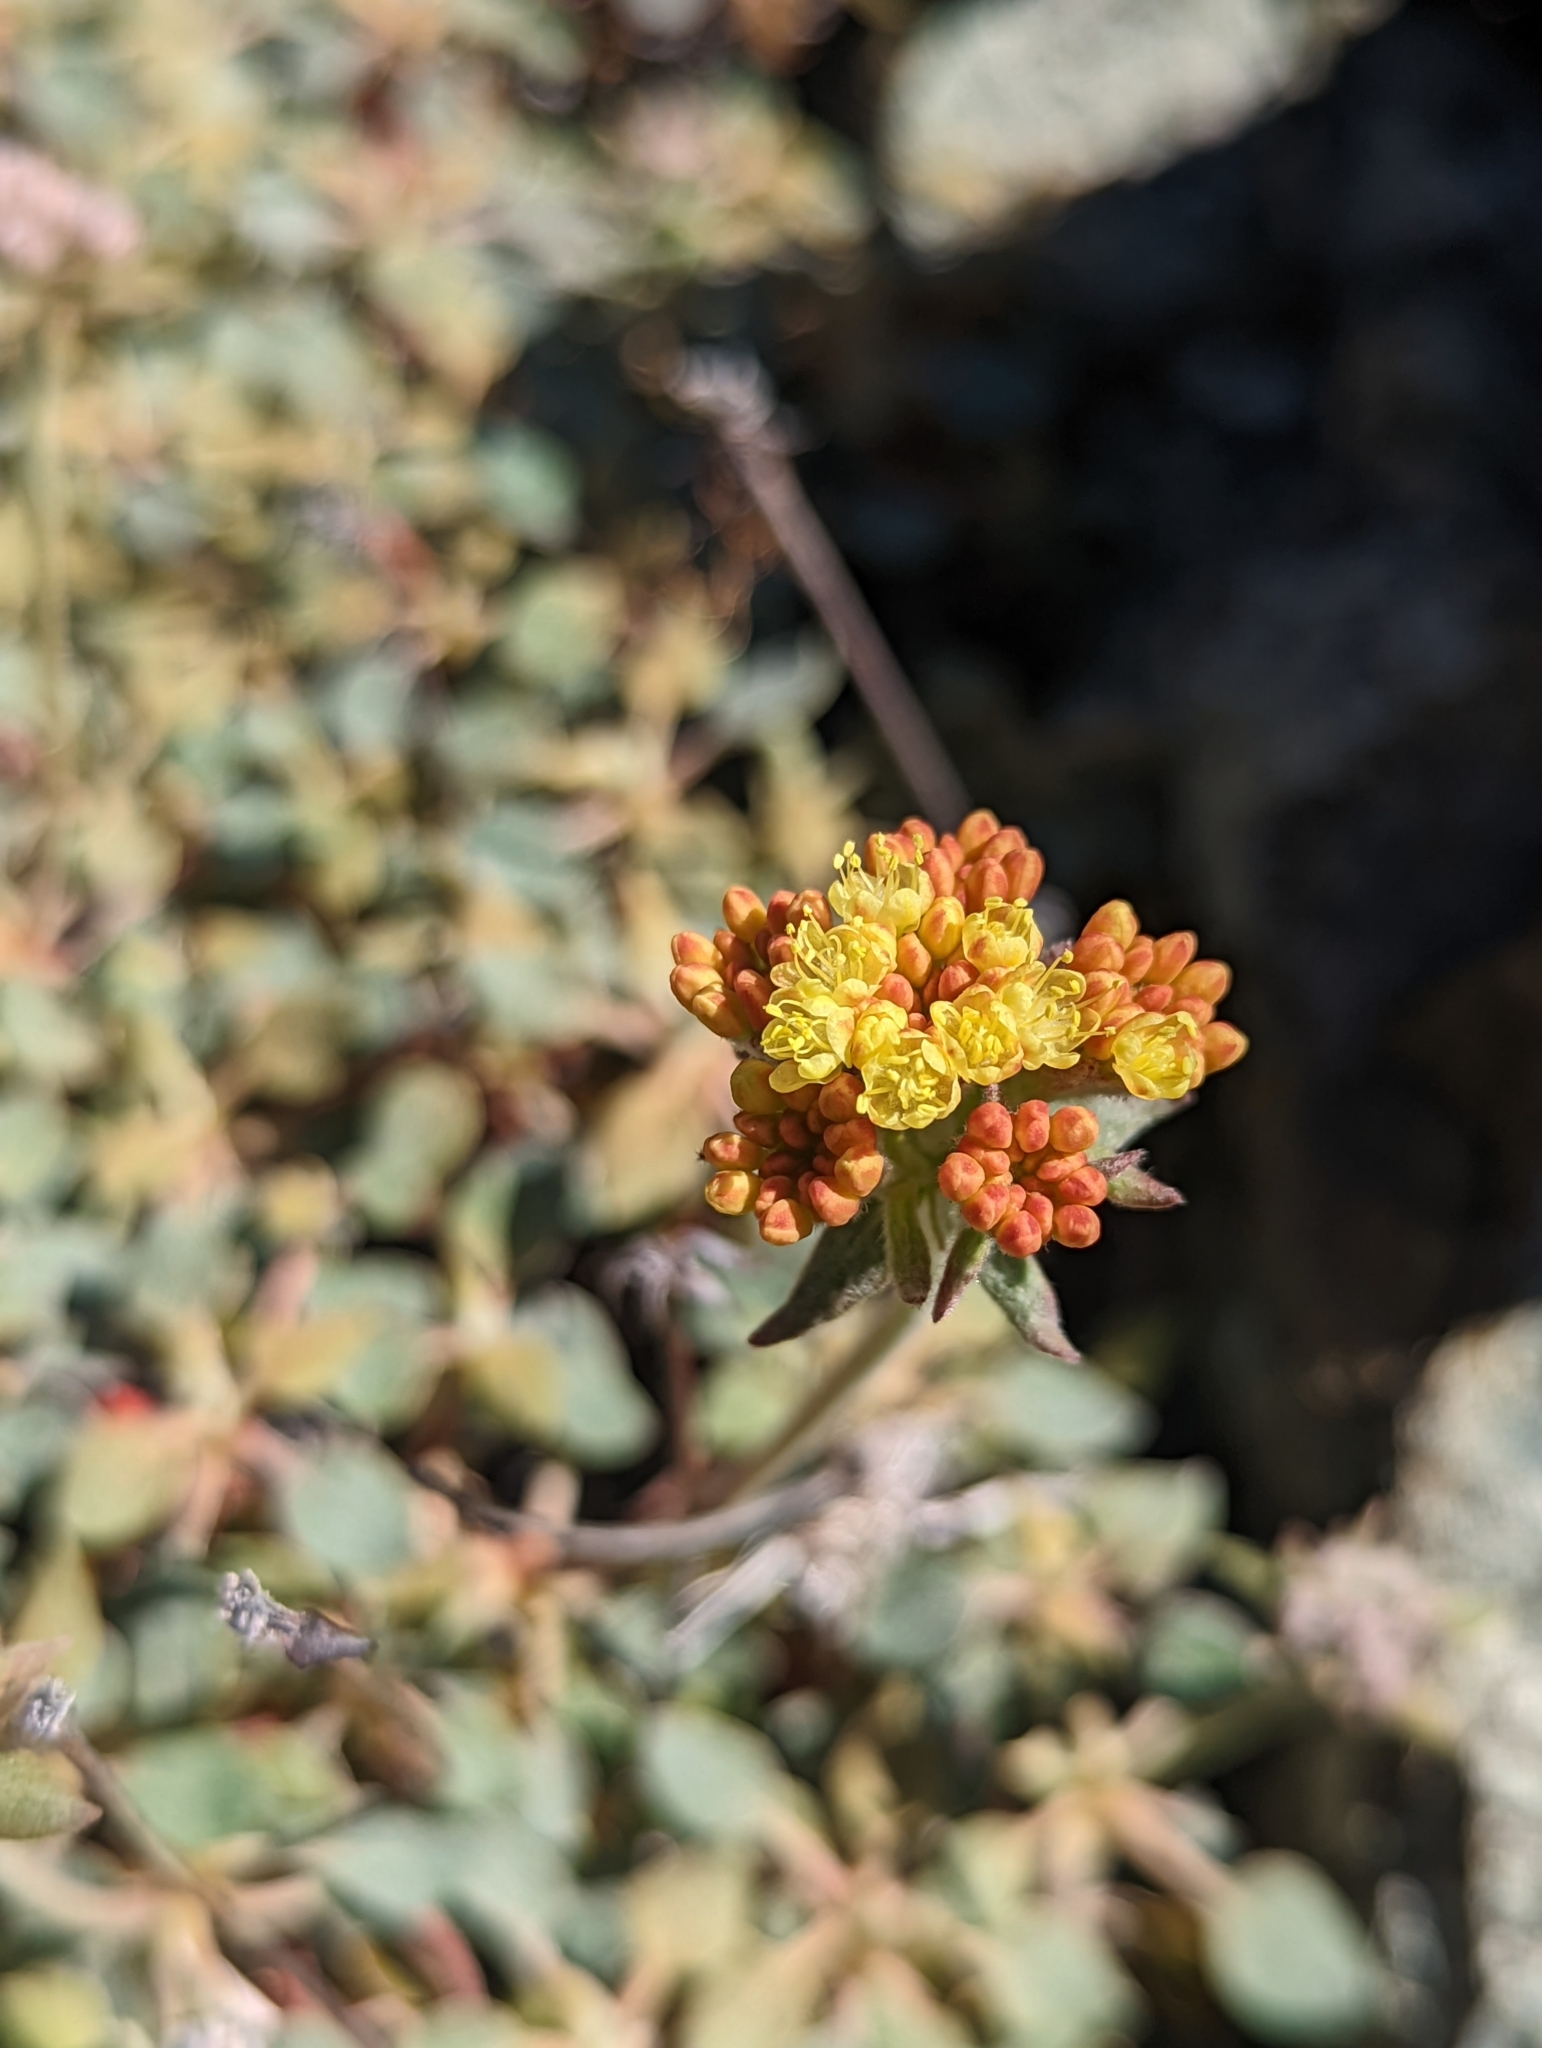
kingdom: Plantae
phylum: Tracheophyta
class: Magnoliopsida
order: Caryophyllales
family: Polygonaceae
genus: Eriogonum
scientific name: Eriogonum cedrorum
